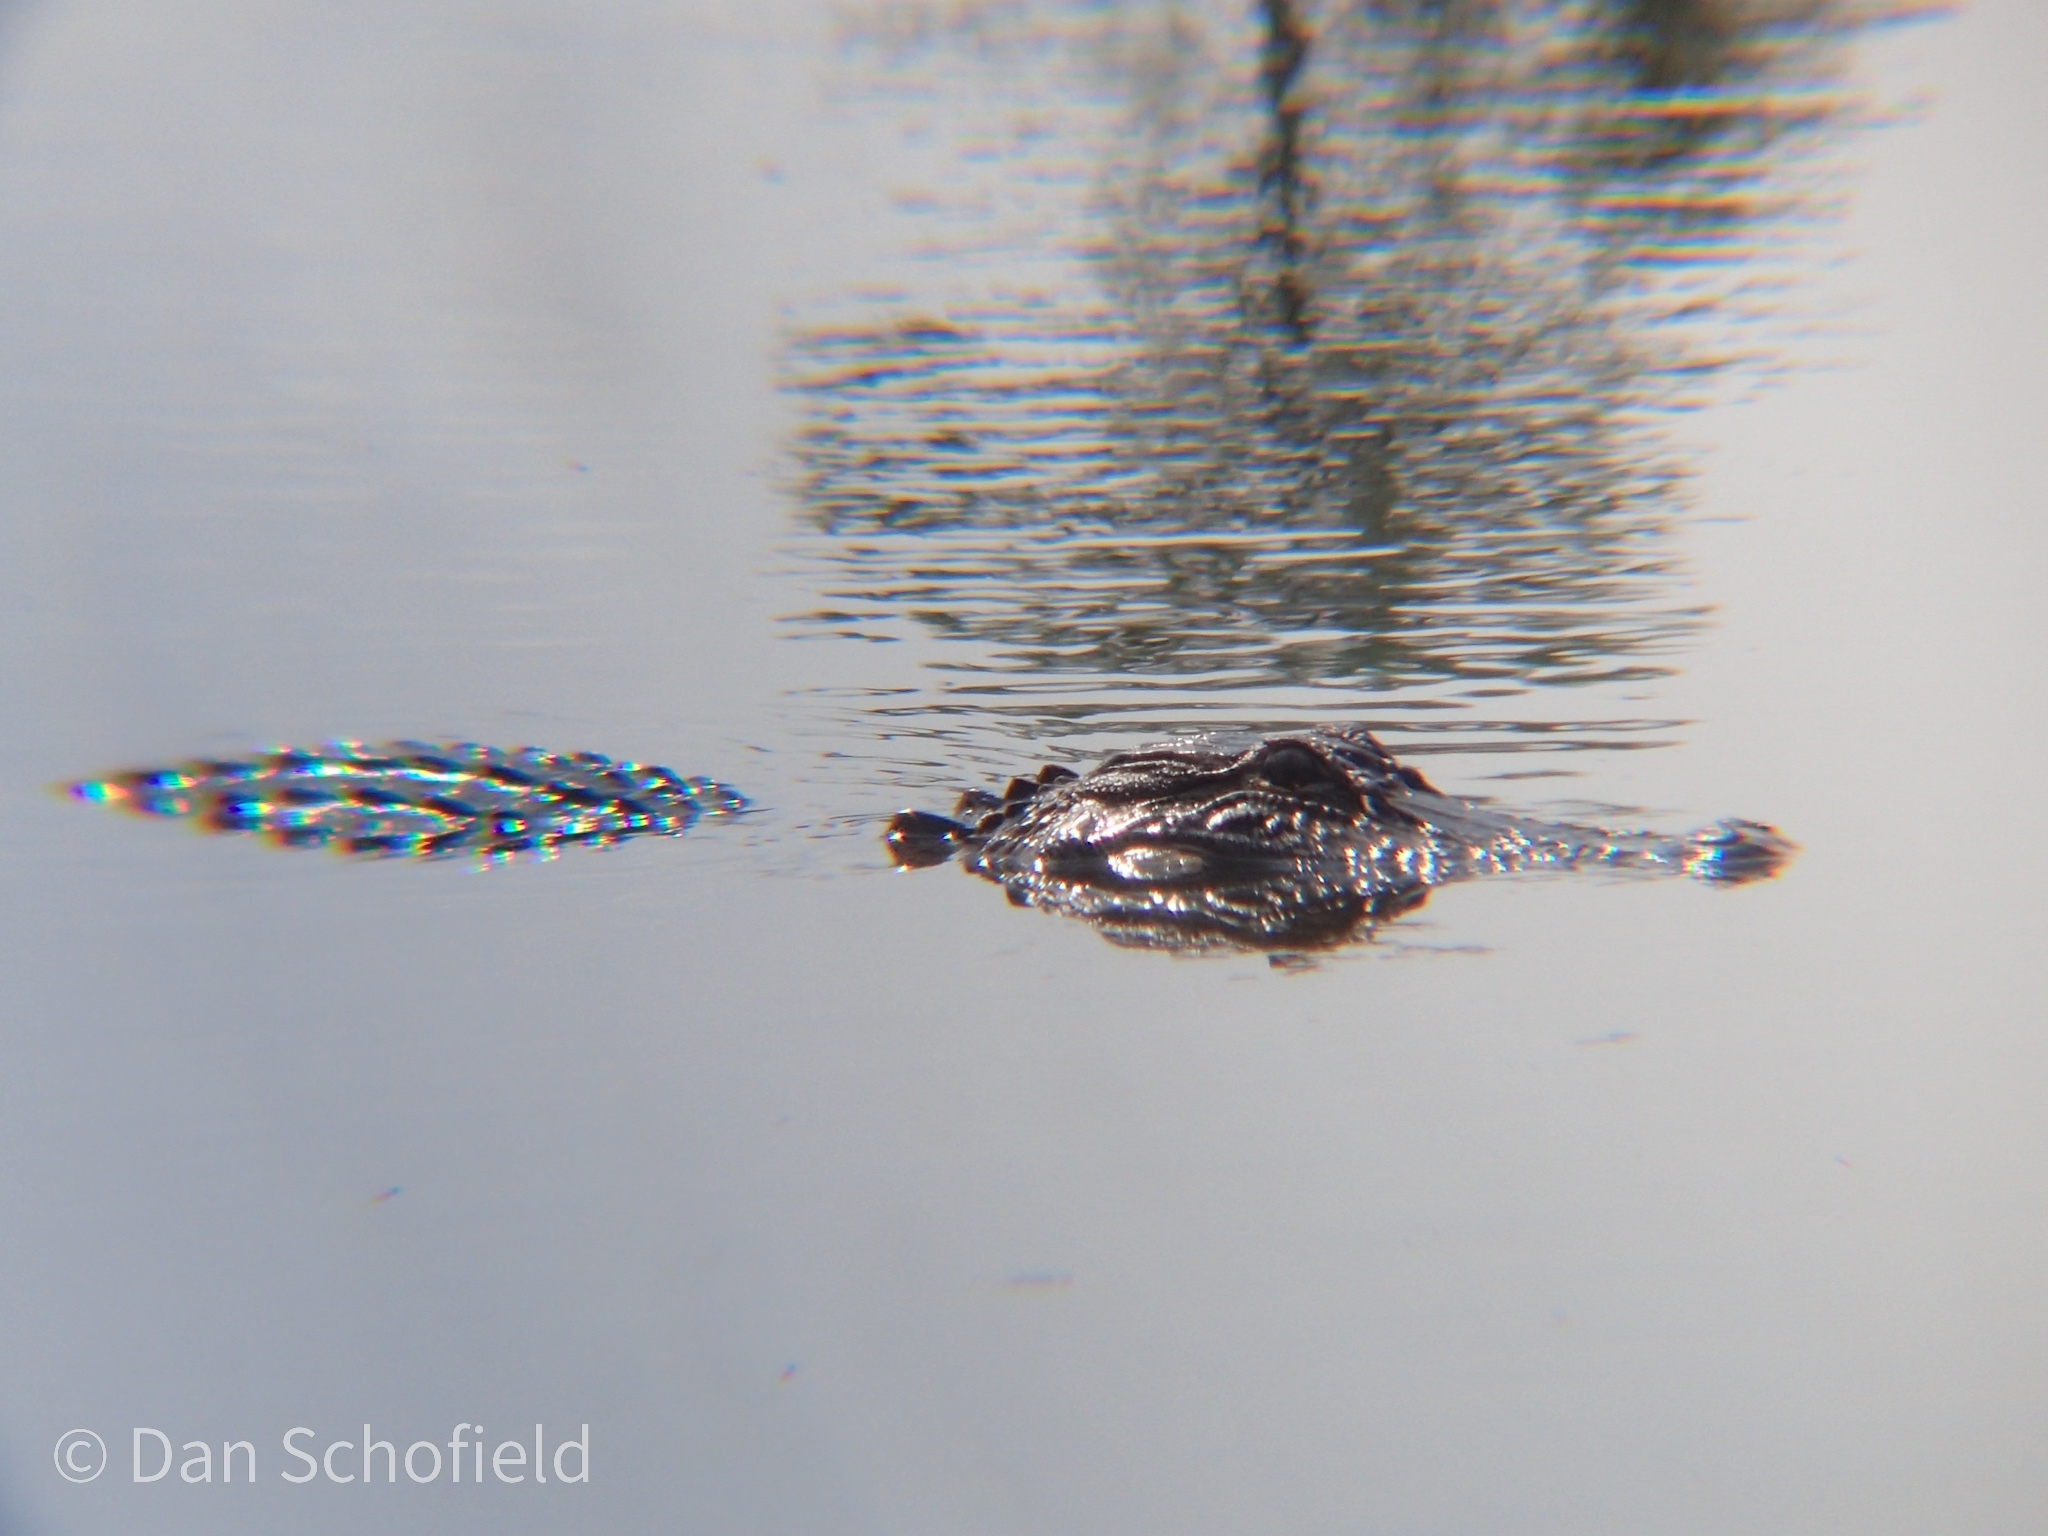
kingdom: Animalia
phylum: Chordata
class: Crocodylia
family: Alligatoridae
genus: Alligator
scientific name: Alligator mississippiensis
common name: American alligator
